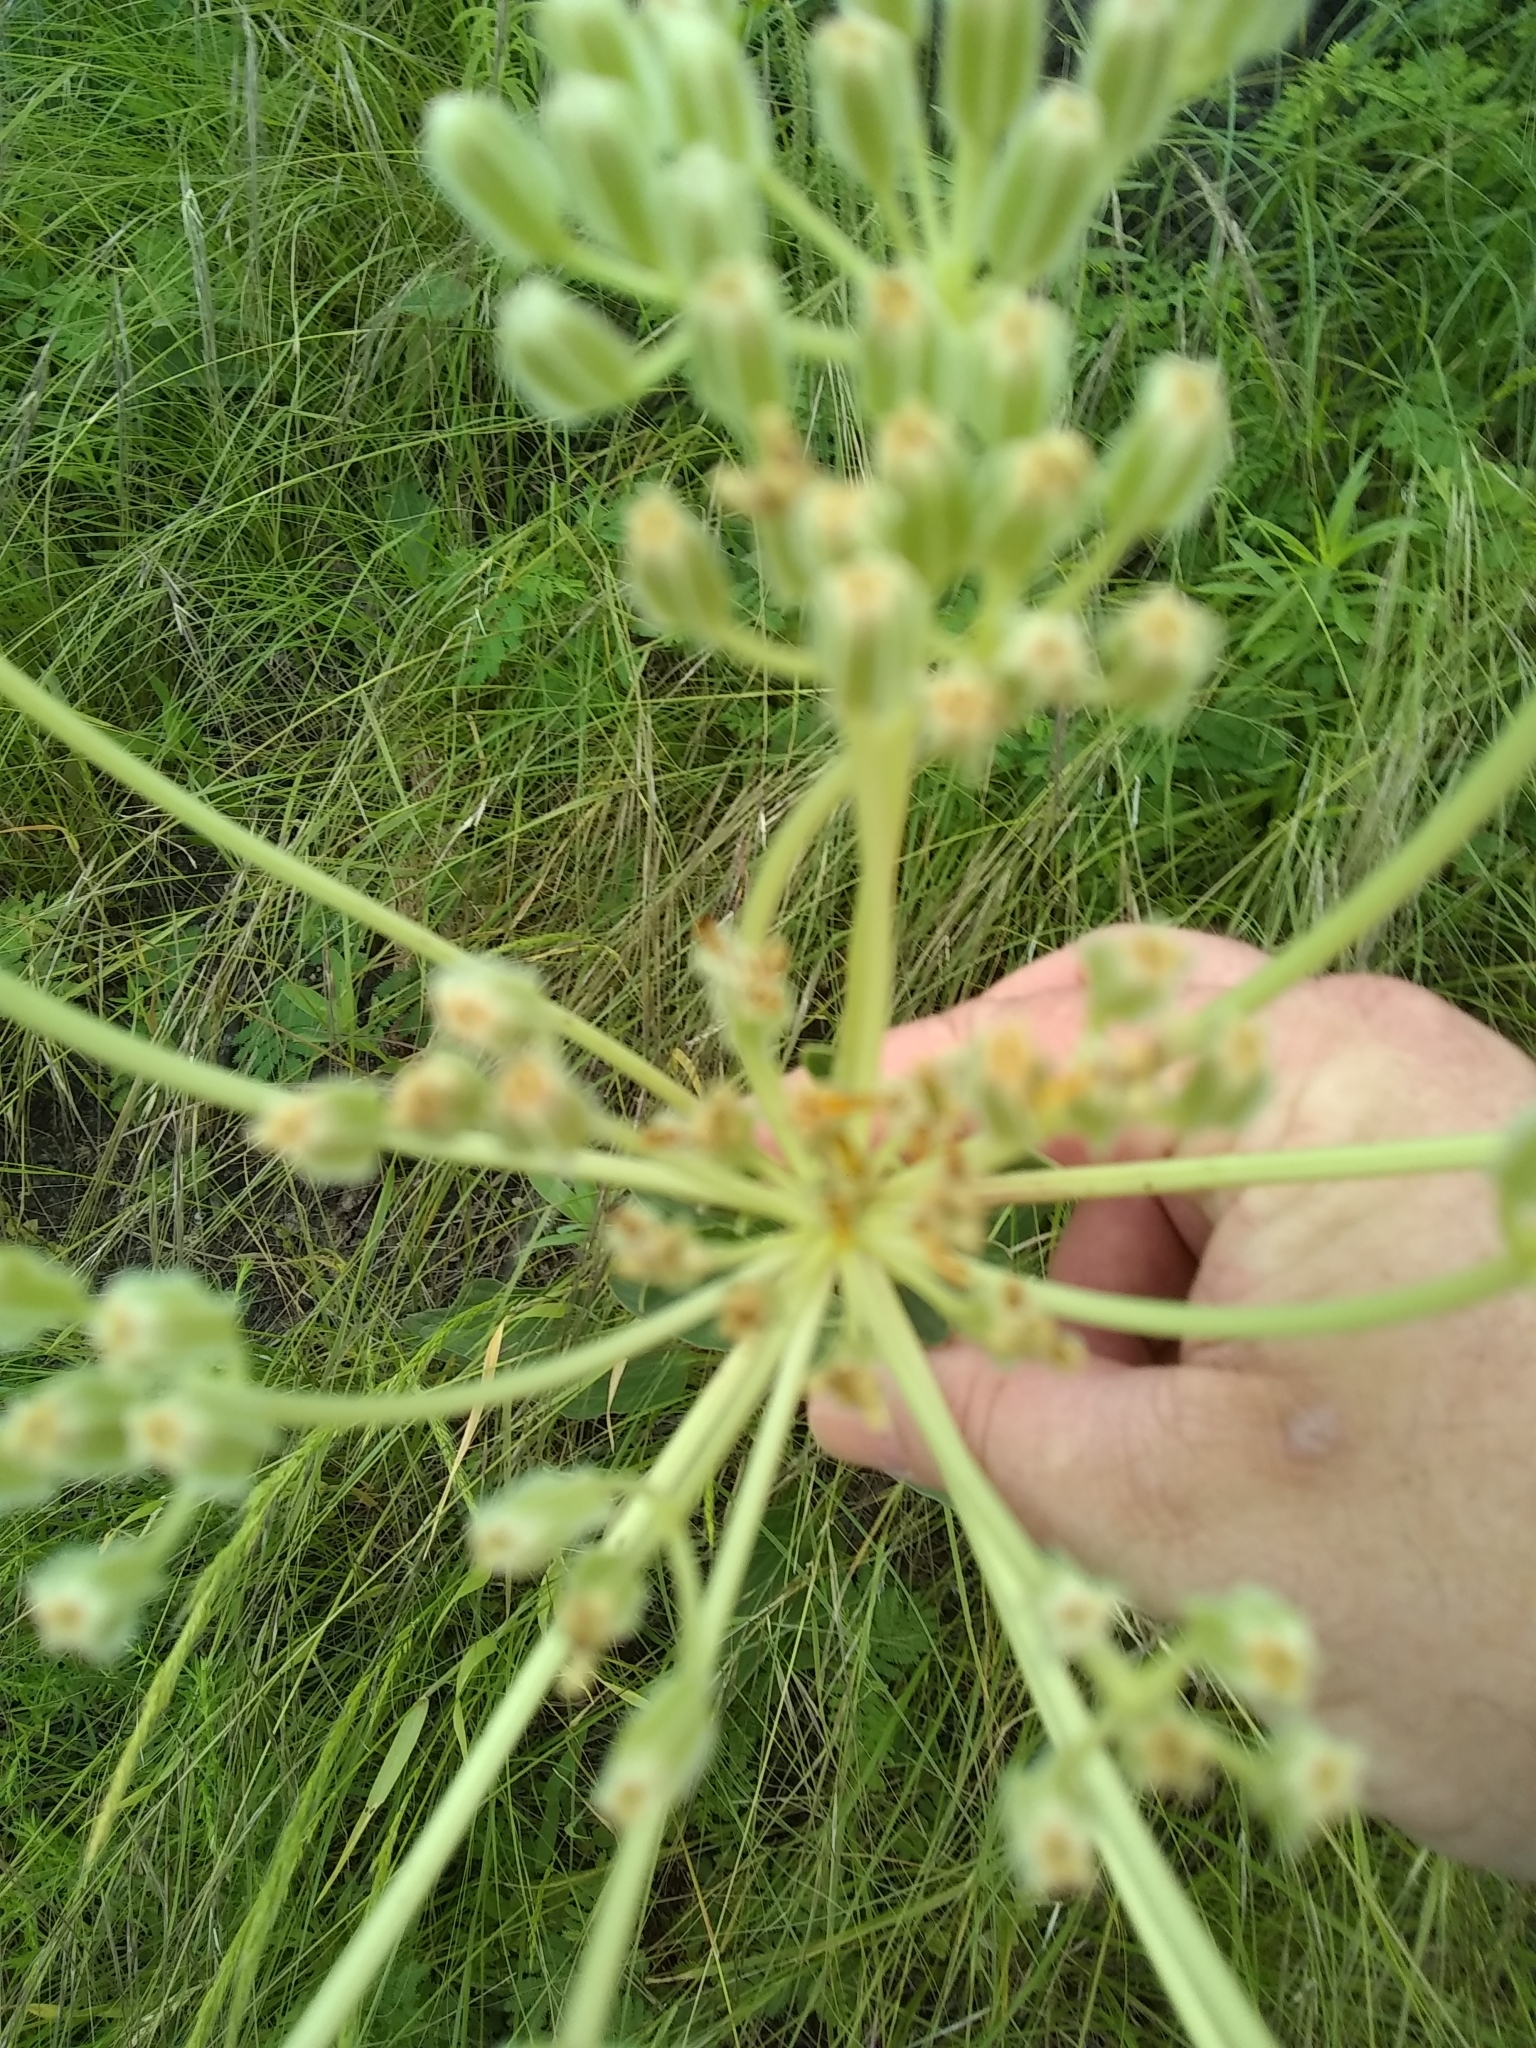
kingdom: Plantae
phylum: Tracheophyta
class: Magnoliopsida
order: Asterales
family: Asteraceae
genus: Arnoglossum
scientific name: Arnoglossum plantagineum
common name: Groove-stemmed indian-plantain
